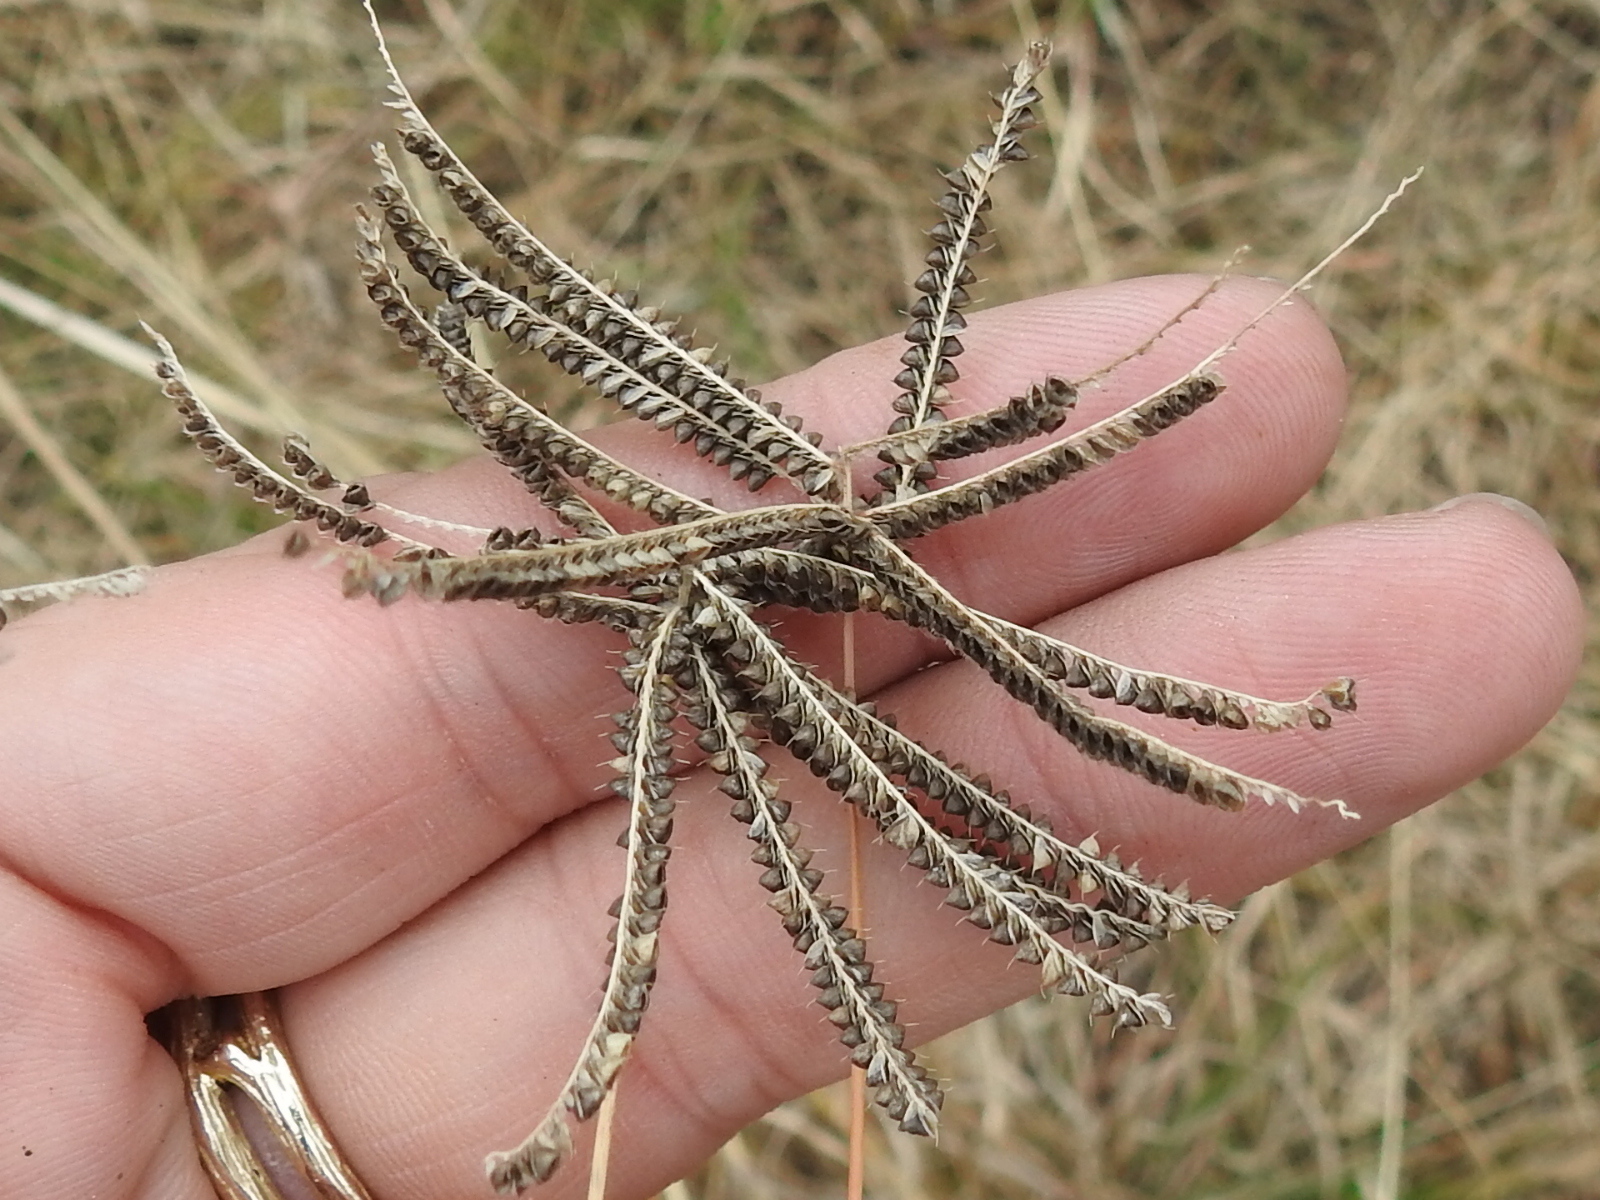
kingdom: Plantae
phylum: Tracheophyta
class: Liliopsida
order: Poales
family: Poaceae
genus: Chloris
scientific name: Chloris cucullata
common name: Hooded windmill grass
